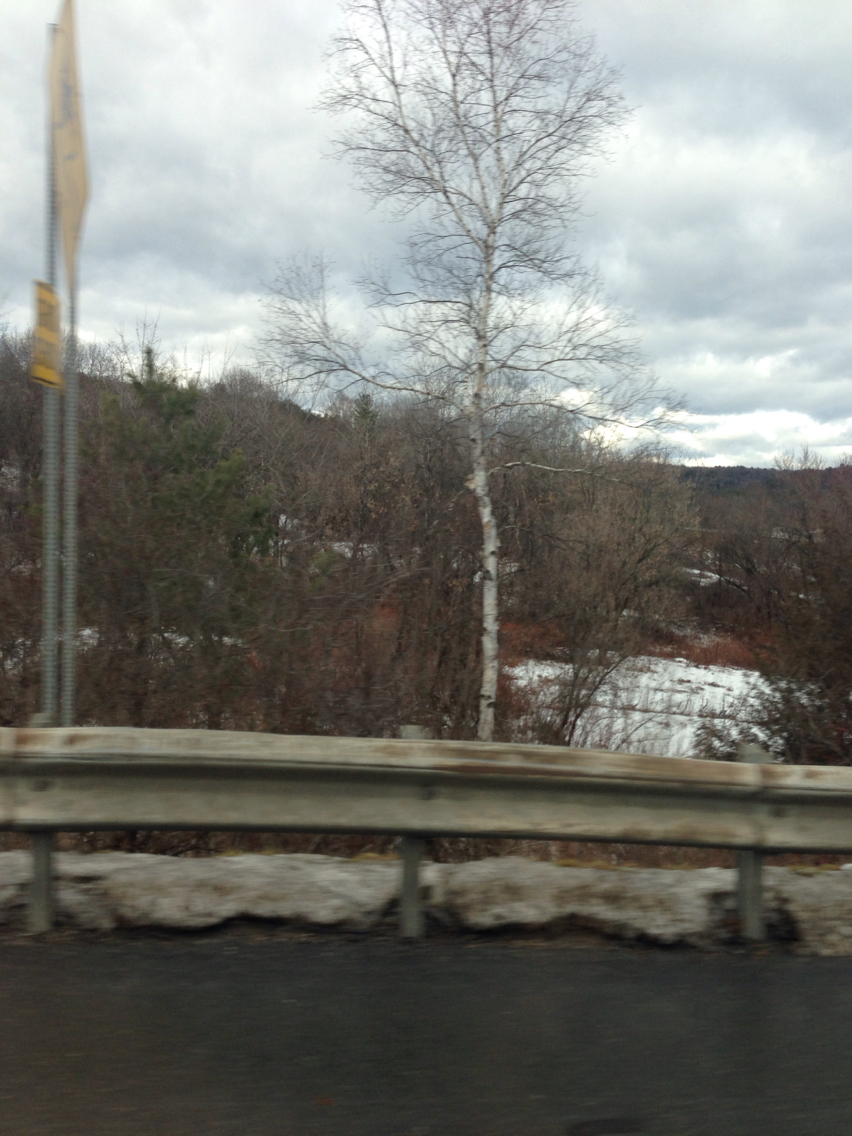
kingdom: Plantae
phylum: Tracheophyta
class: Magnoliopsida
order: Fagales
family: Betulaceae
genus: Betula
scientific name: Betula papyrifera
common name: Paper birch
